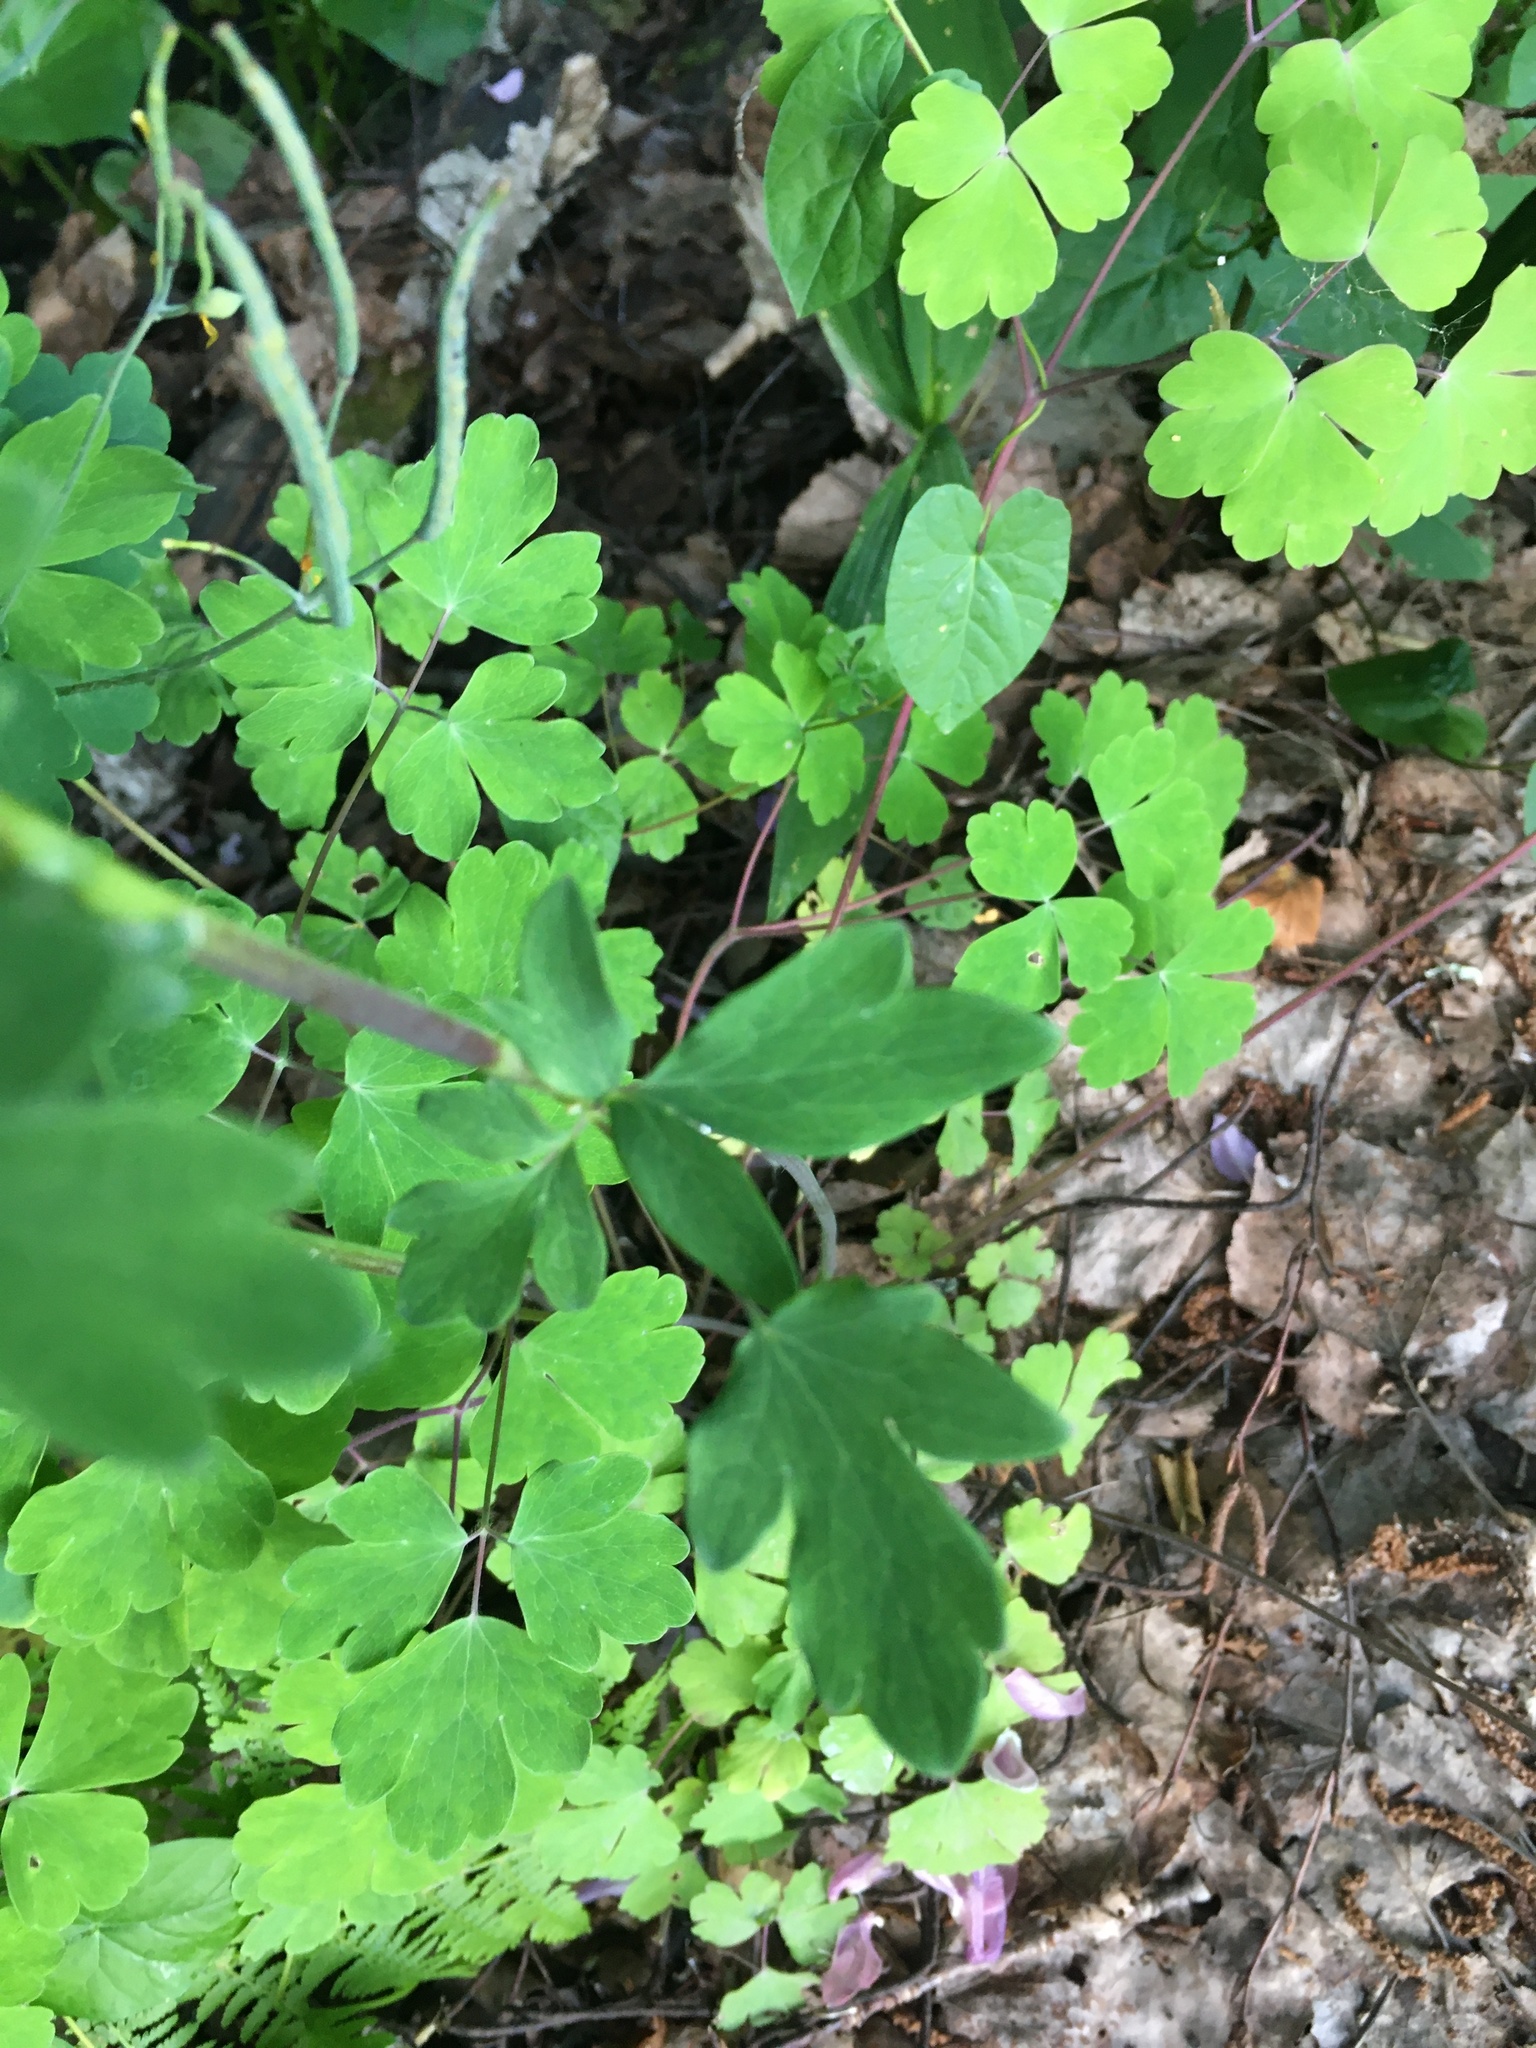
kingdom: Plantae
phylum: Tracheophyta
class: Magnoliopsida
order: Ranunculales
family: Ranunculaceae
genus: Aquilegia
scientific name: Aquilegia vulgaris
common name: Columbine
